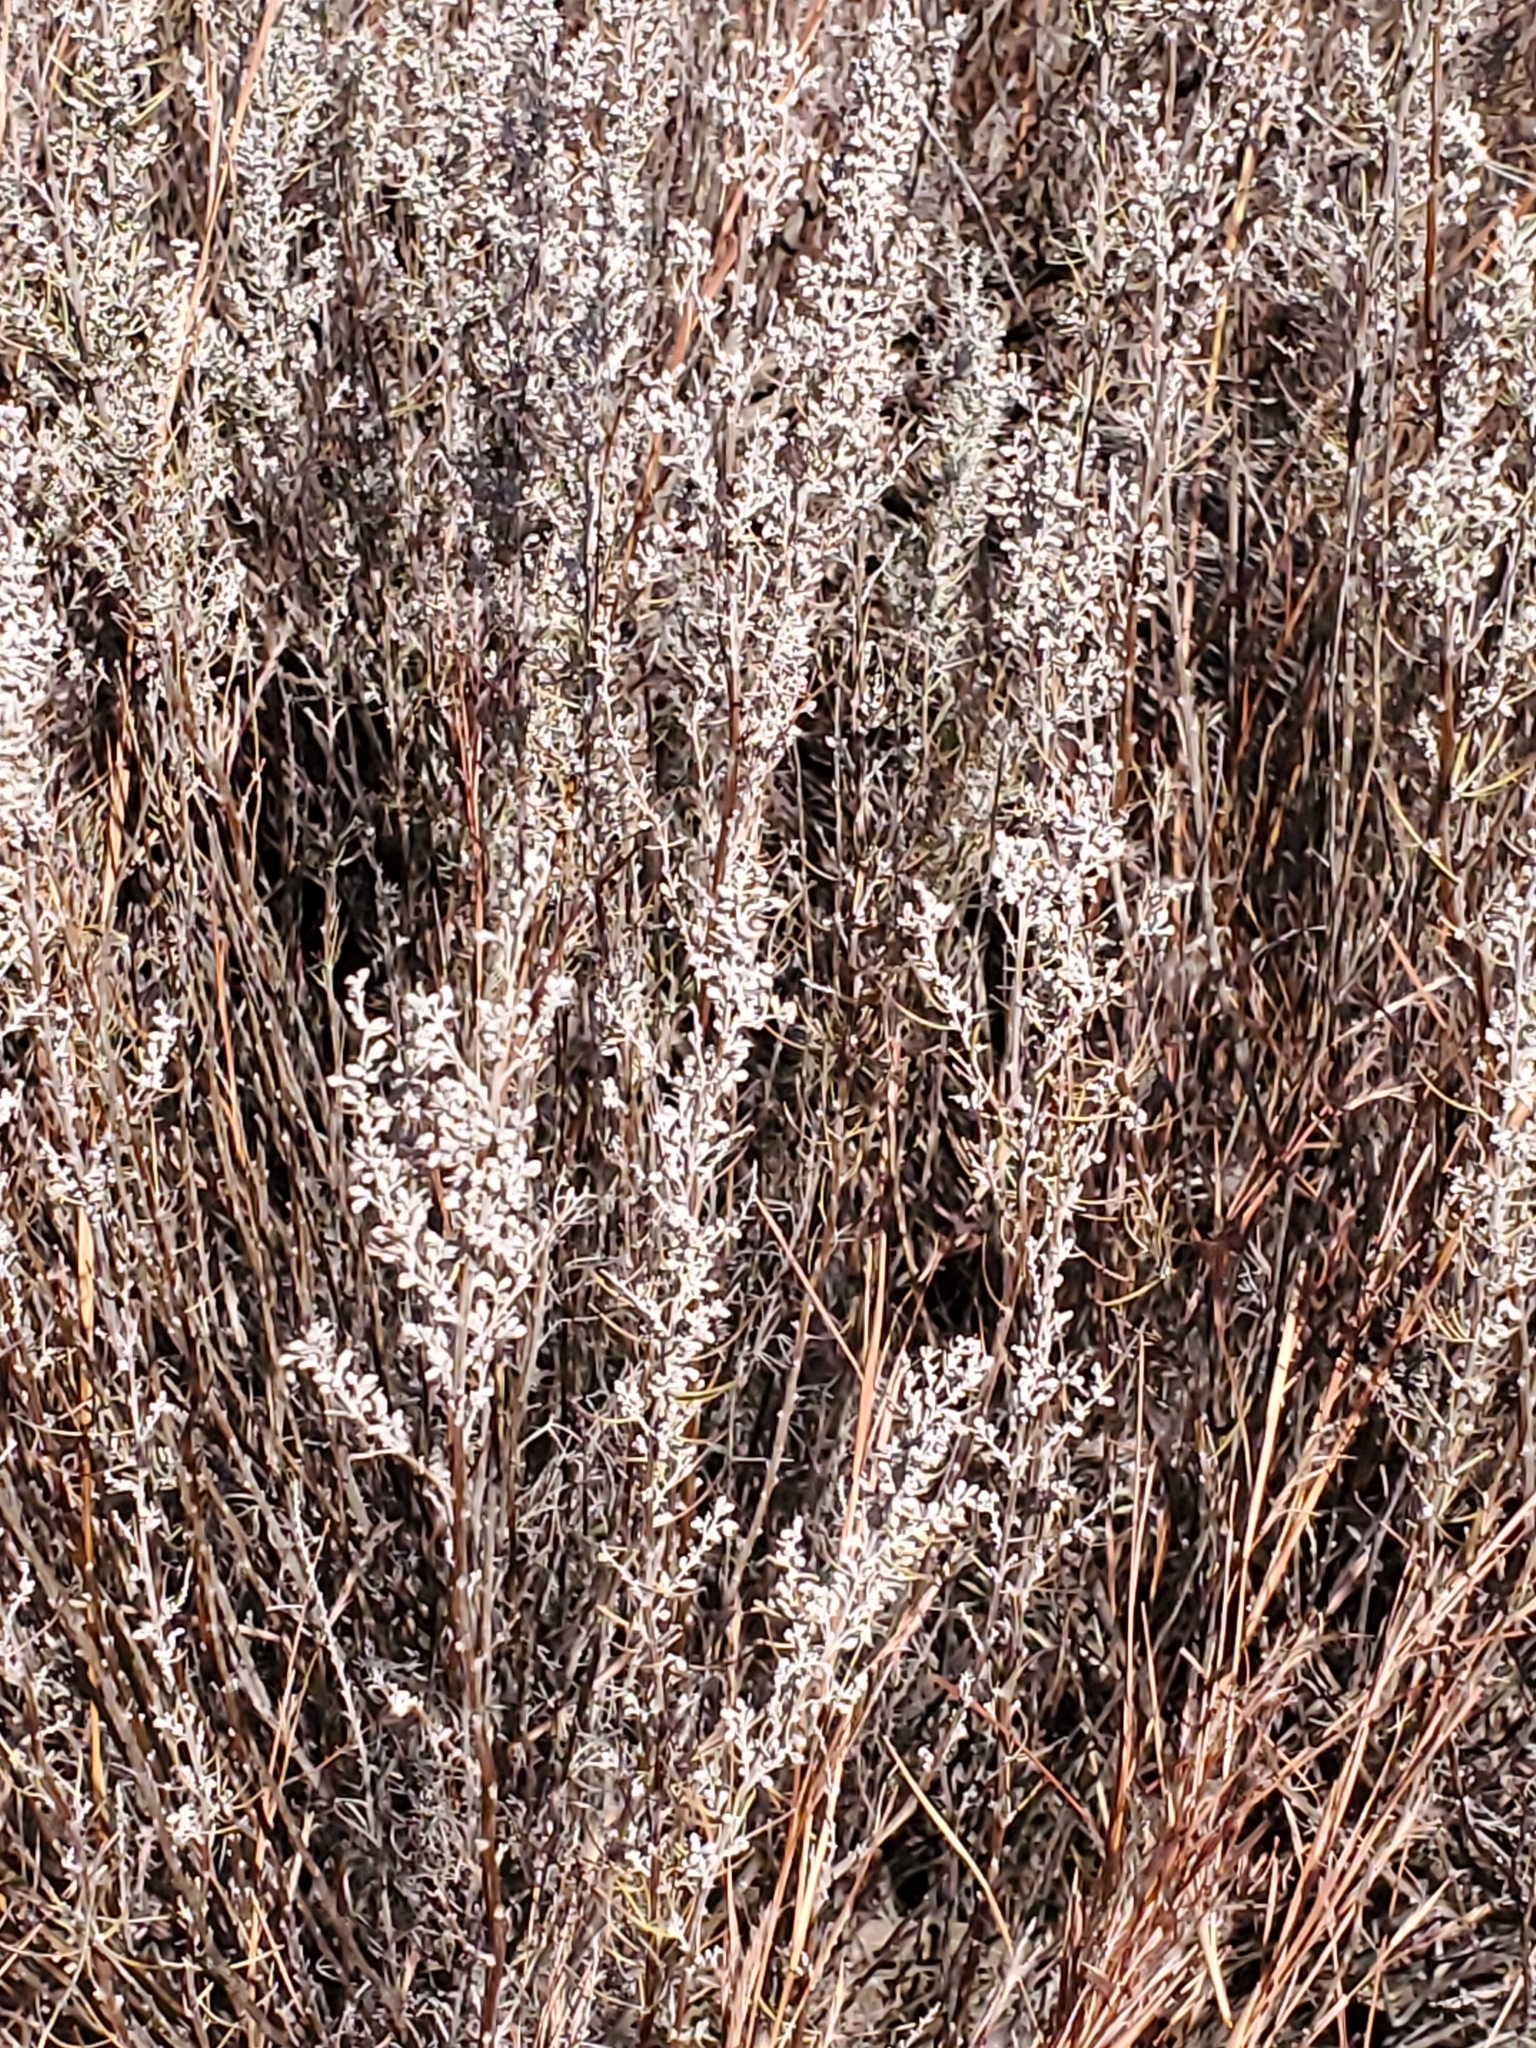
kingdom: Plantae
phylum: Tracheophyta
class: Magnoliopsida
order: Asterales
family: Asteraceae
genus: Artemisia
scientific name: Artemisia filifolia
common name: Sand-sage
